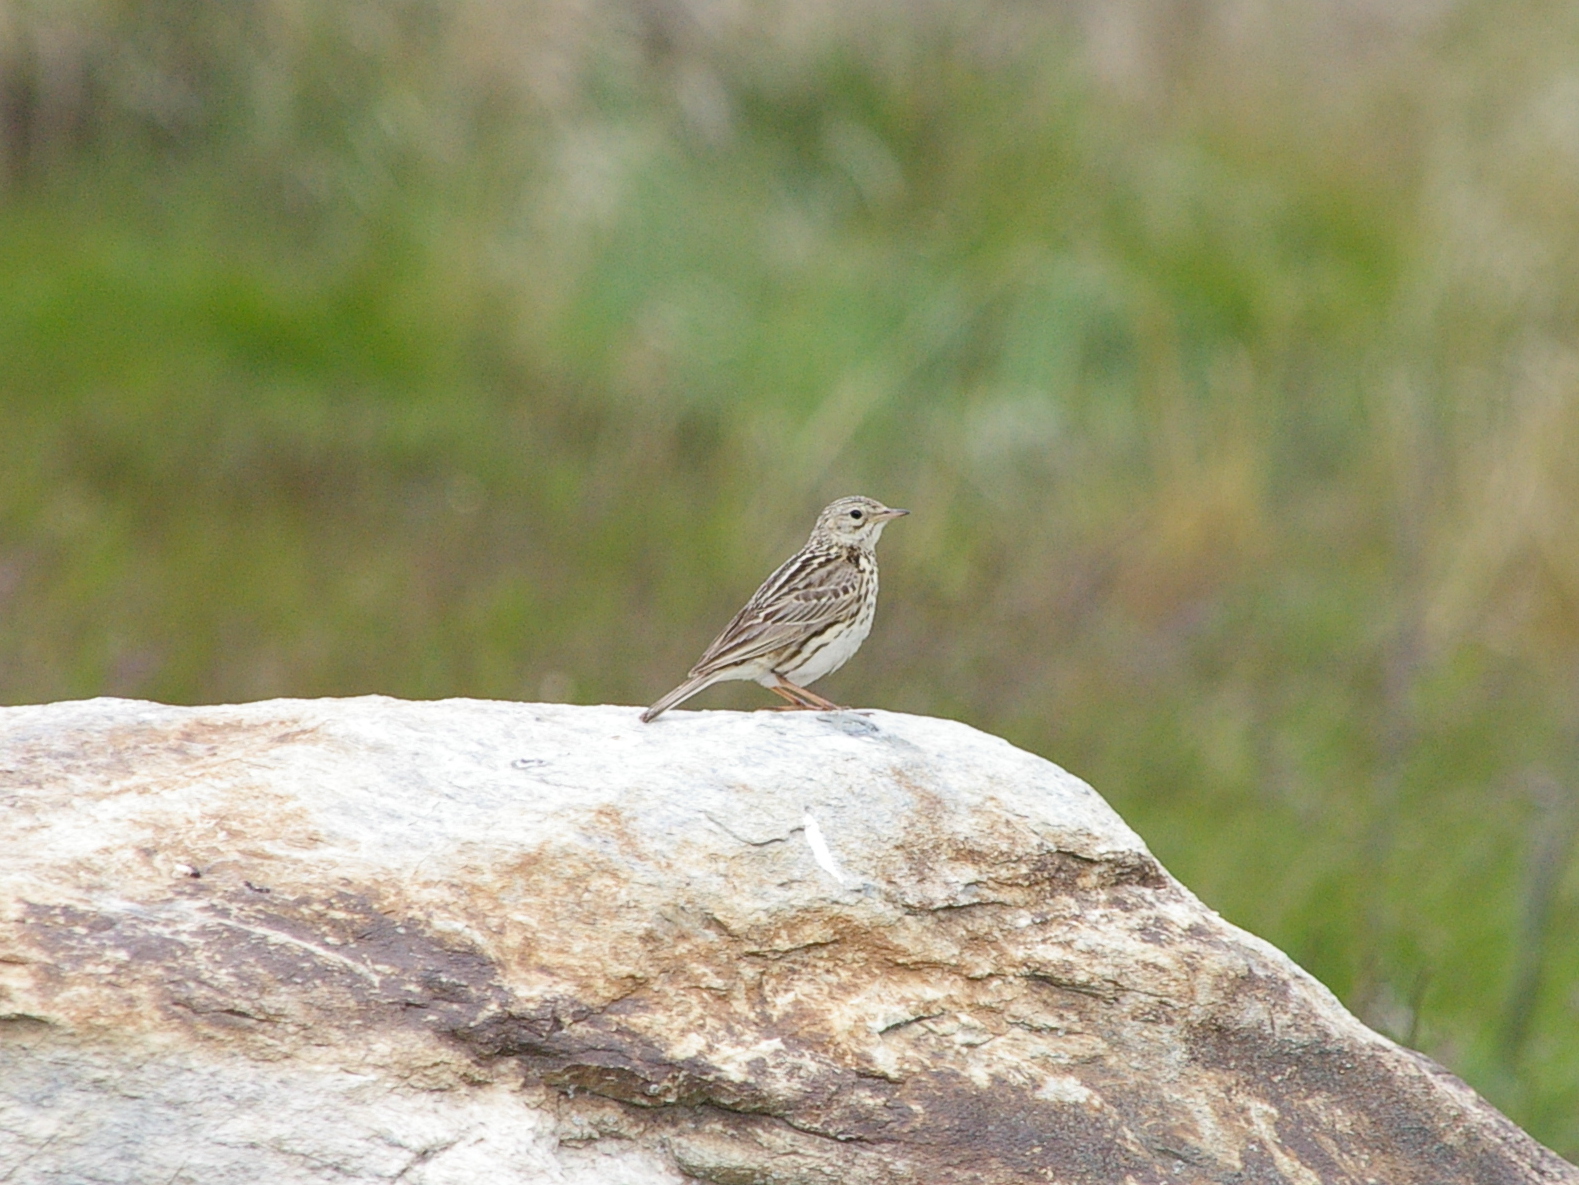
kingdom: Animalia
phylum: Chordata
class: Aves
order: Passeriformes
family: Motacillidae
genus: Anthus
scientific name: Anthus correndera
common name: Correndera pipit
